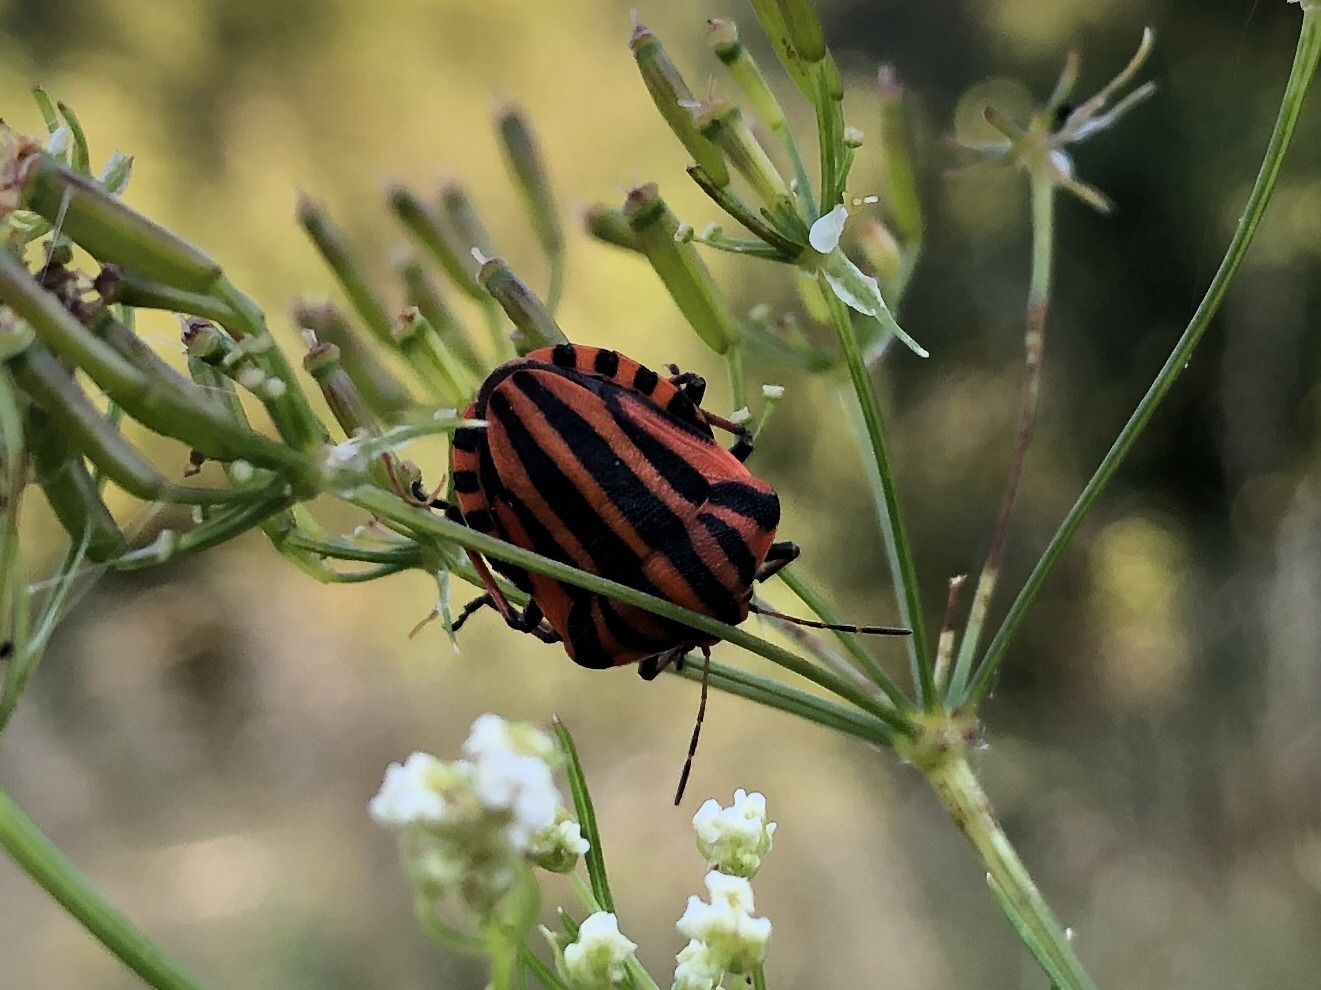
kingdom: Animalia
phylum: Arthropoda
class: Insecta
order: Hemiptera
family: Pentatomidae
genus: Graphosoma
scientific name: Graphosoma italicum
